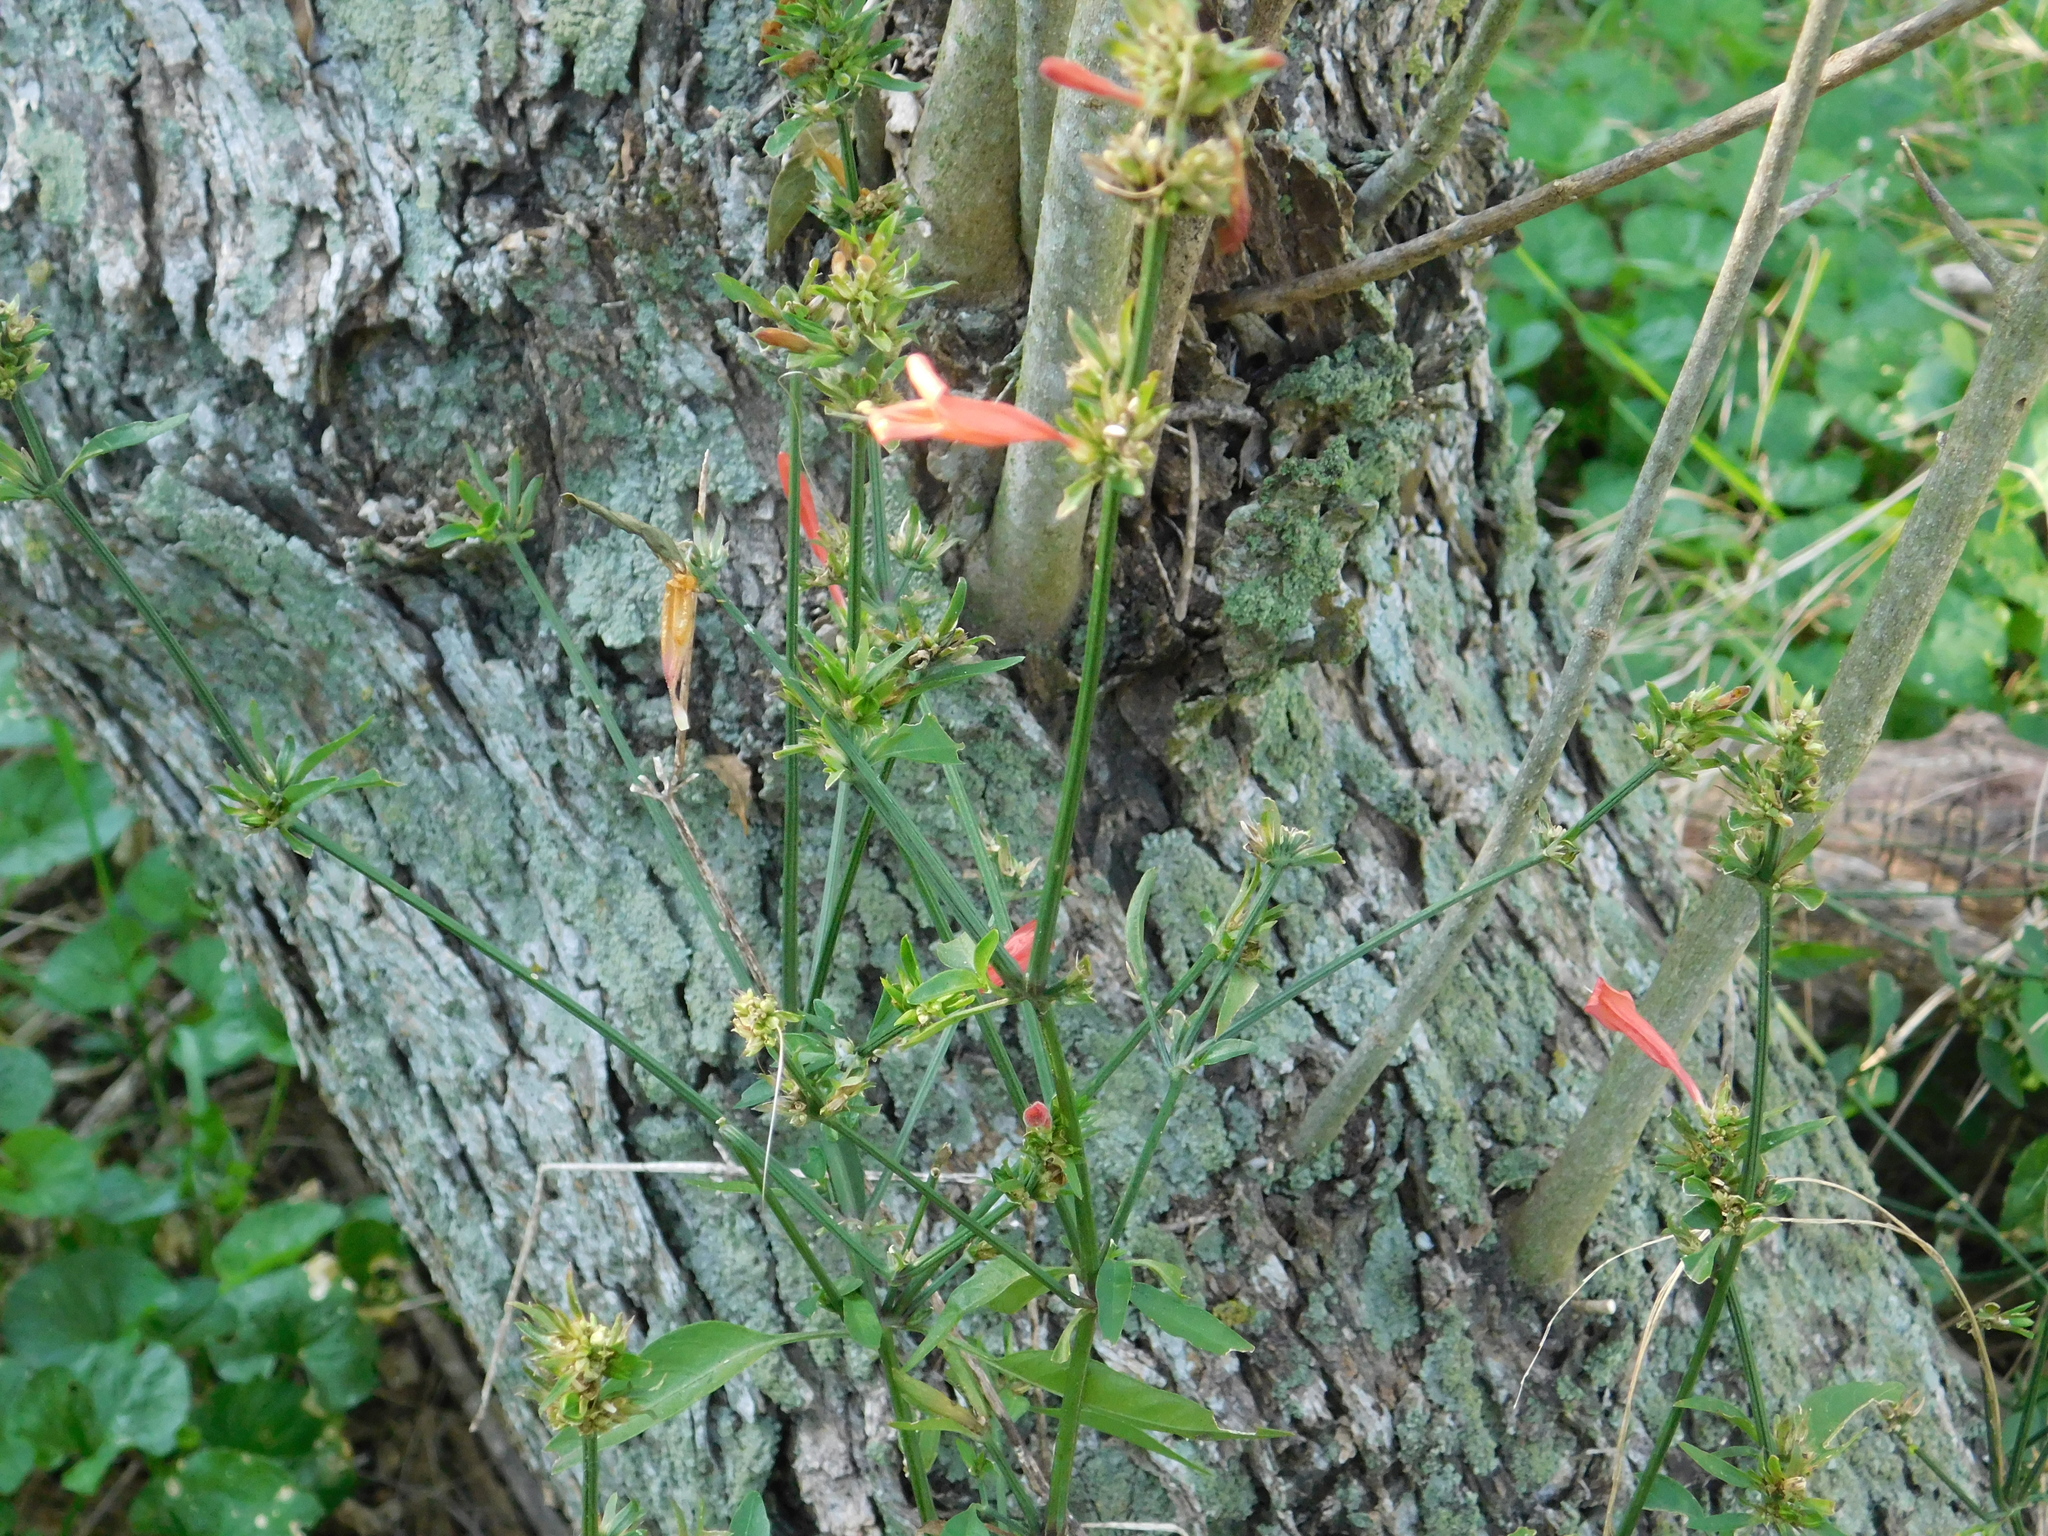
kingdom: Plantae
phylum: Tracheophyta
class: Magnoliopsida
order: Lamiales
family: Acanthaceae
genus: Dicliptera
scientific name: Dicliptera squarrosa
